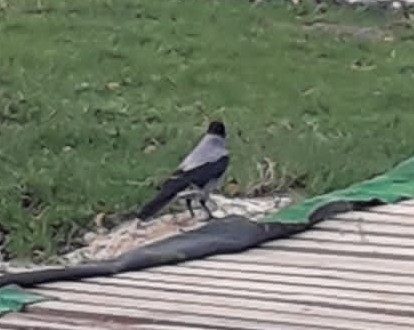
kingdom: Animalia
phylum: Chordata
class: Aves
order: Passeriformes
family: Corvidae
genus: Corvus
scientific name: Corvus cornix
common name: Hooded crow
